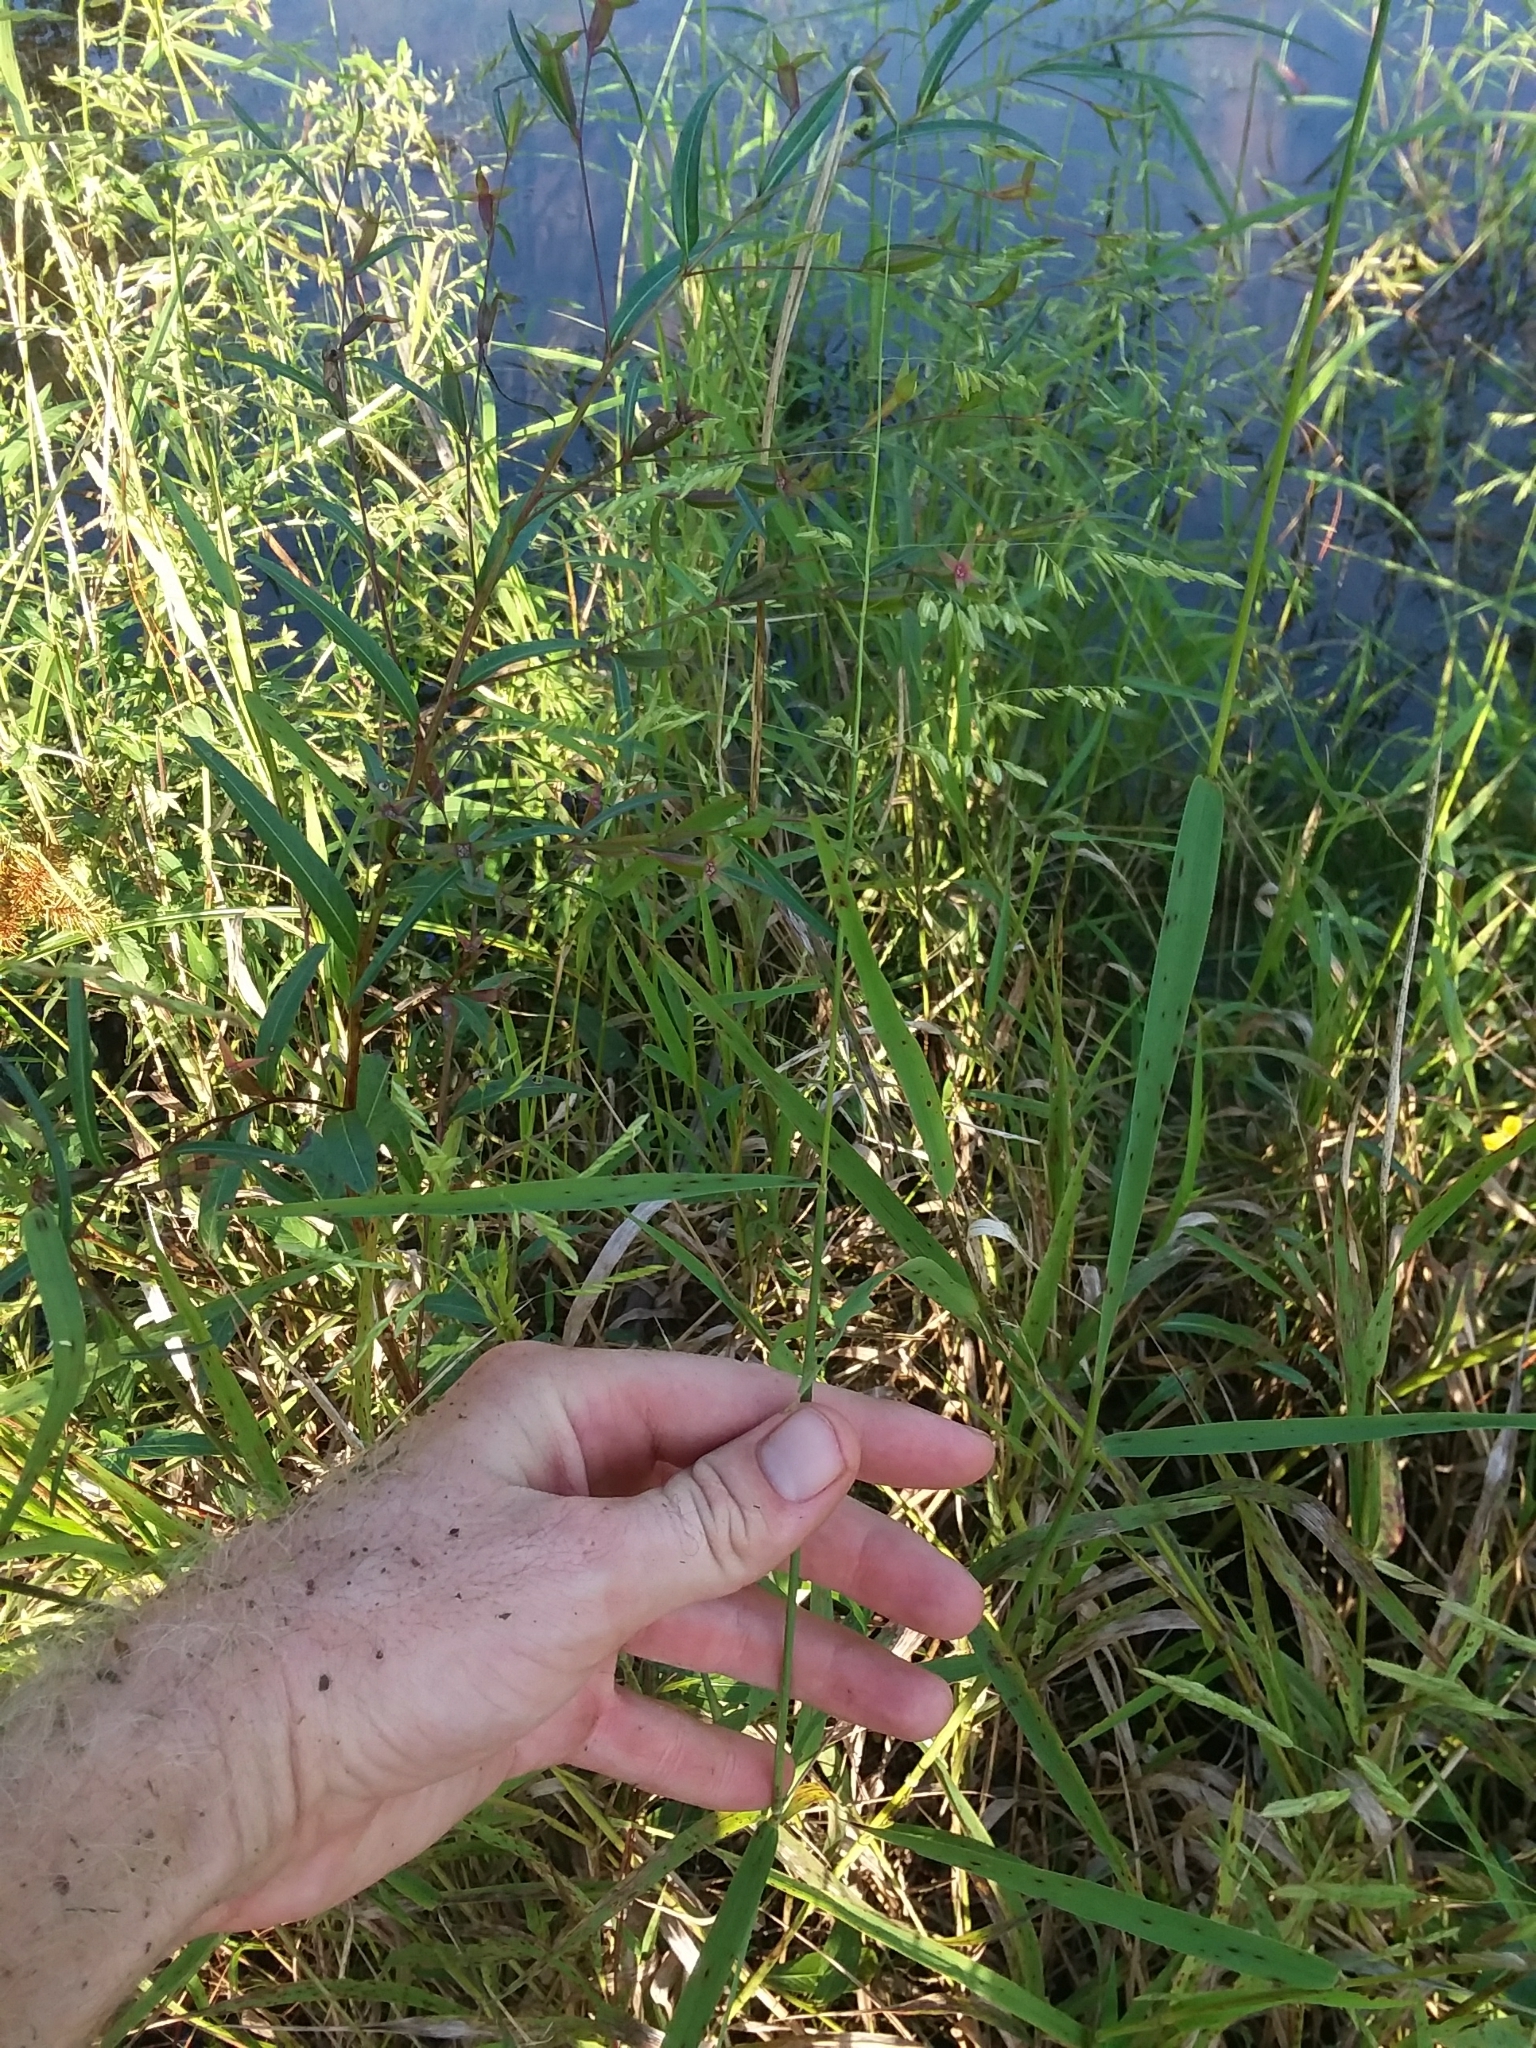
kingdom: Plantae
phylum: Tracheophyta
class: Liliopsida
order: Poales
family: Poaceae
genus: Leersia
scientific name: Leersia oryzoides
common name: Cut-grass
